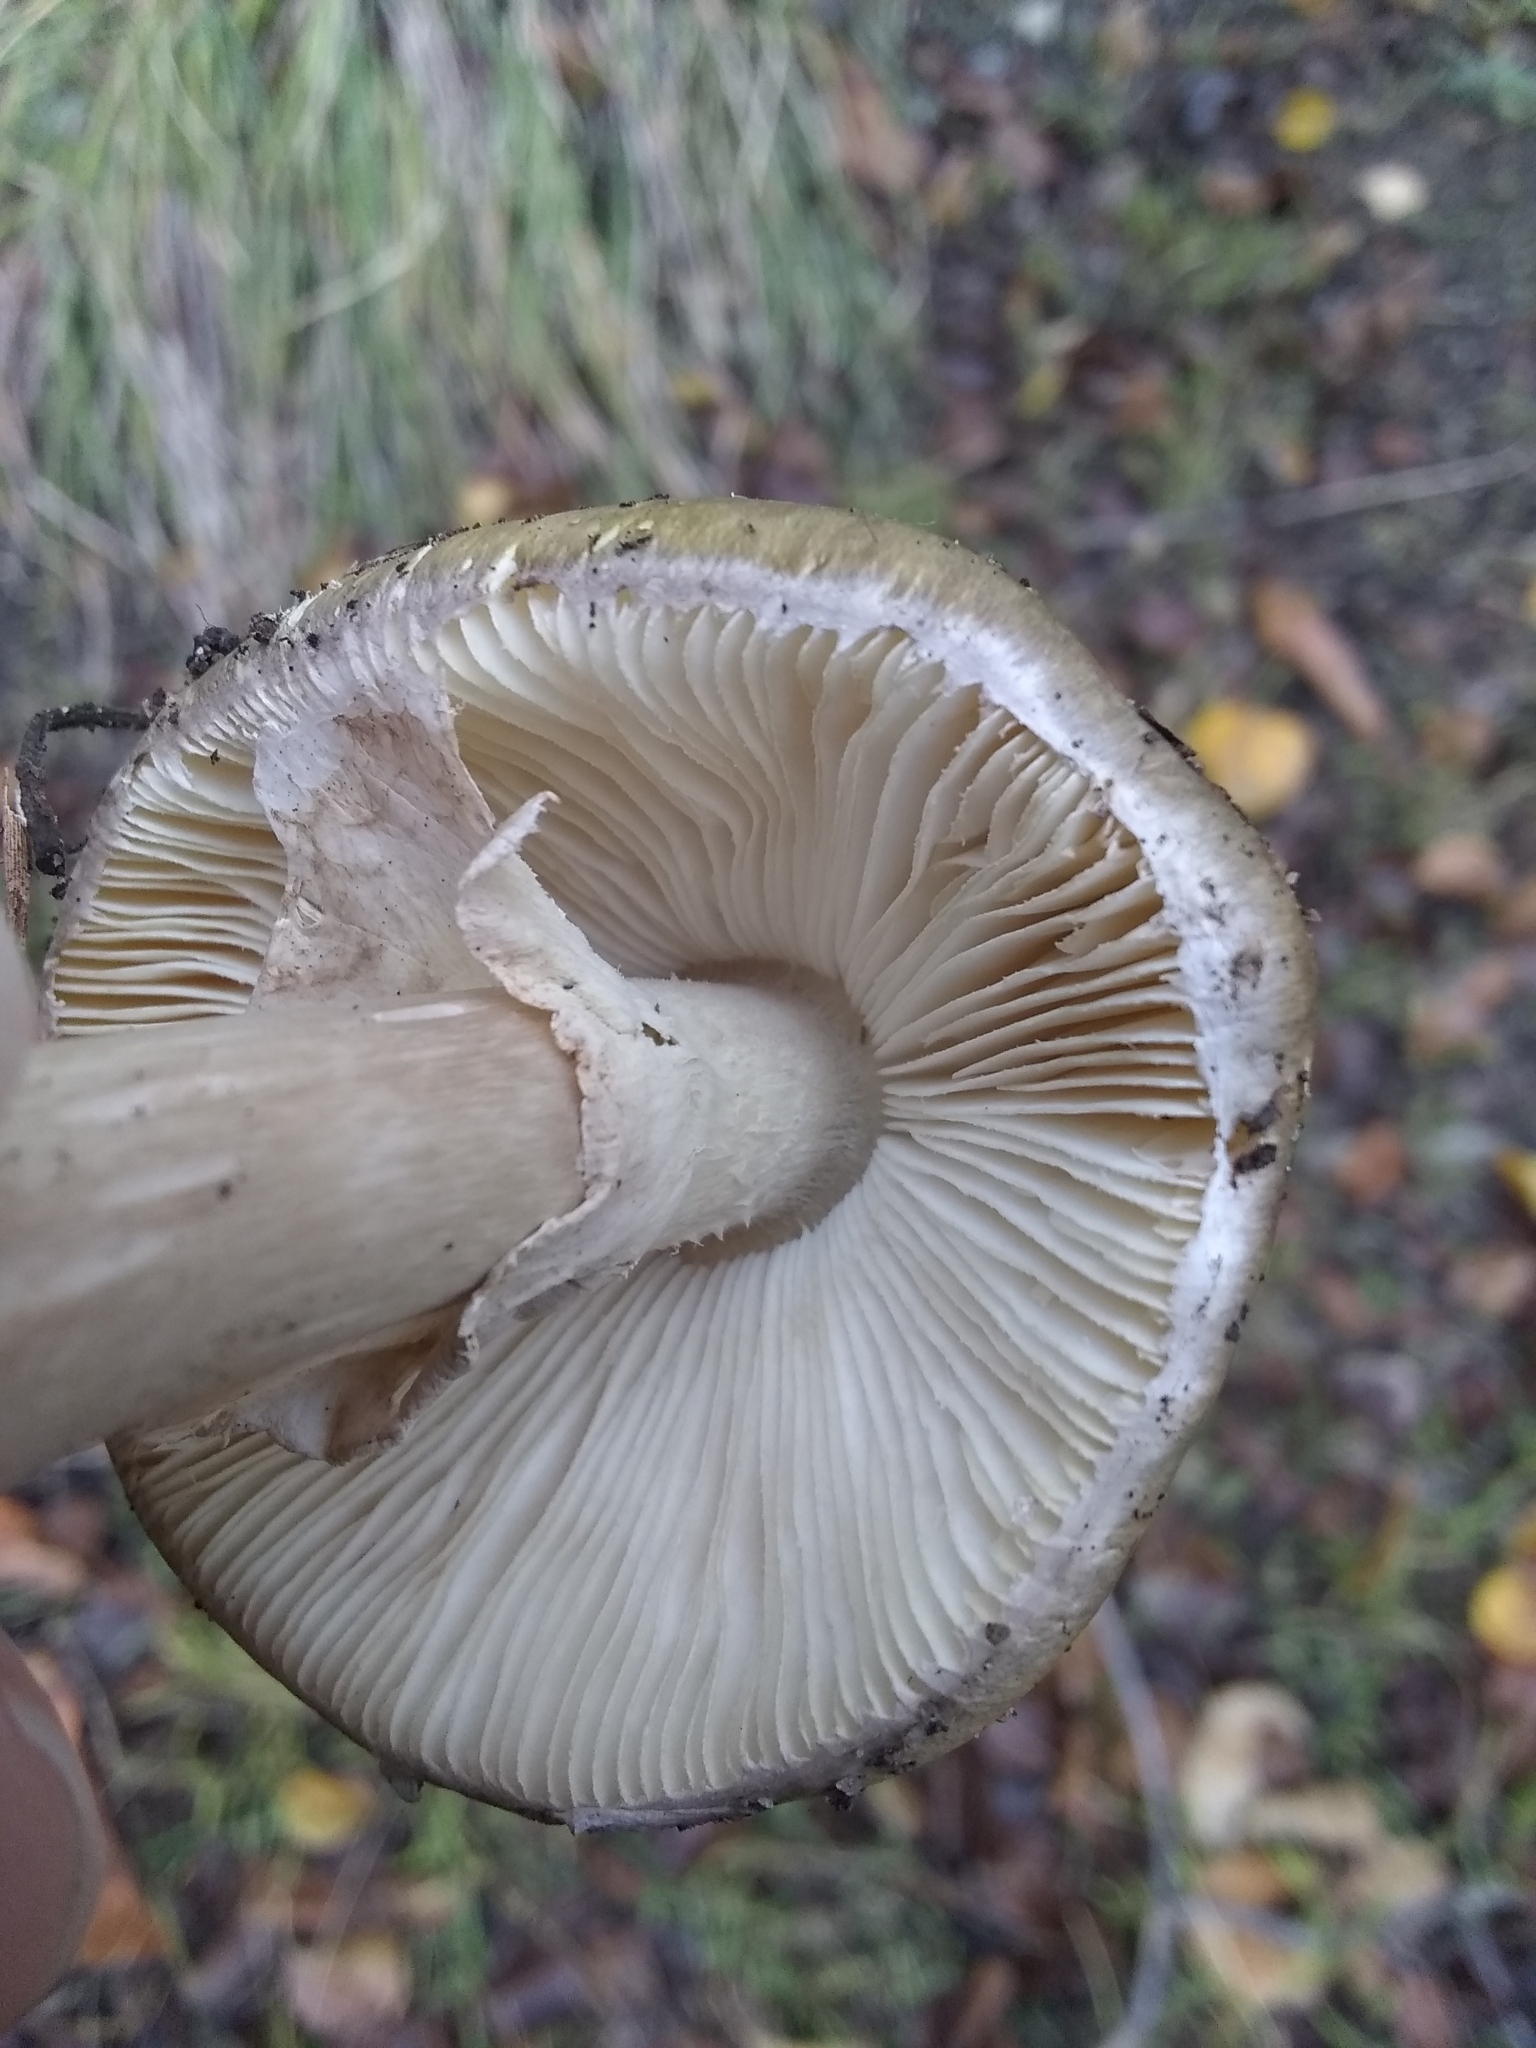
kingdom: Fungi
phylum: Basidiomycota
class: Agaricomycetes
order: Agaricales
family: Amanitaceae
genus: Amanita
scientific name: Amanita phalloides
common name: Death cap
